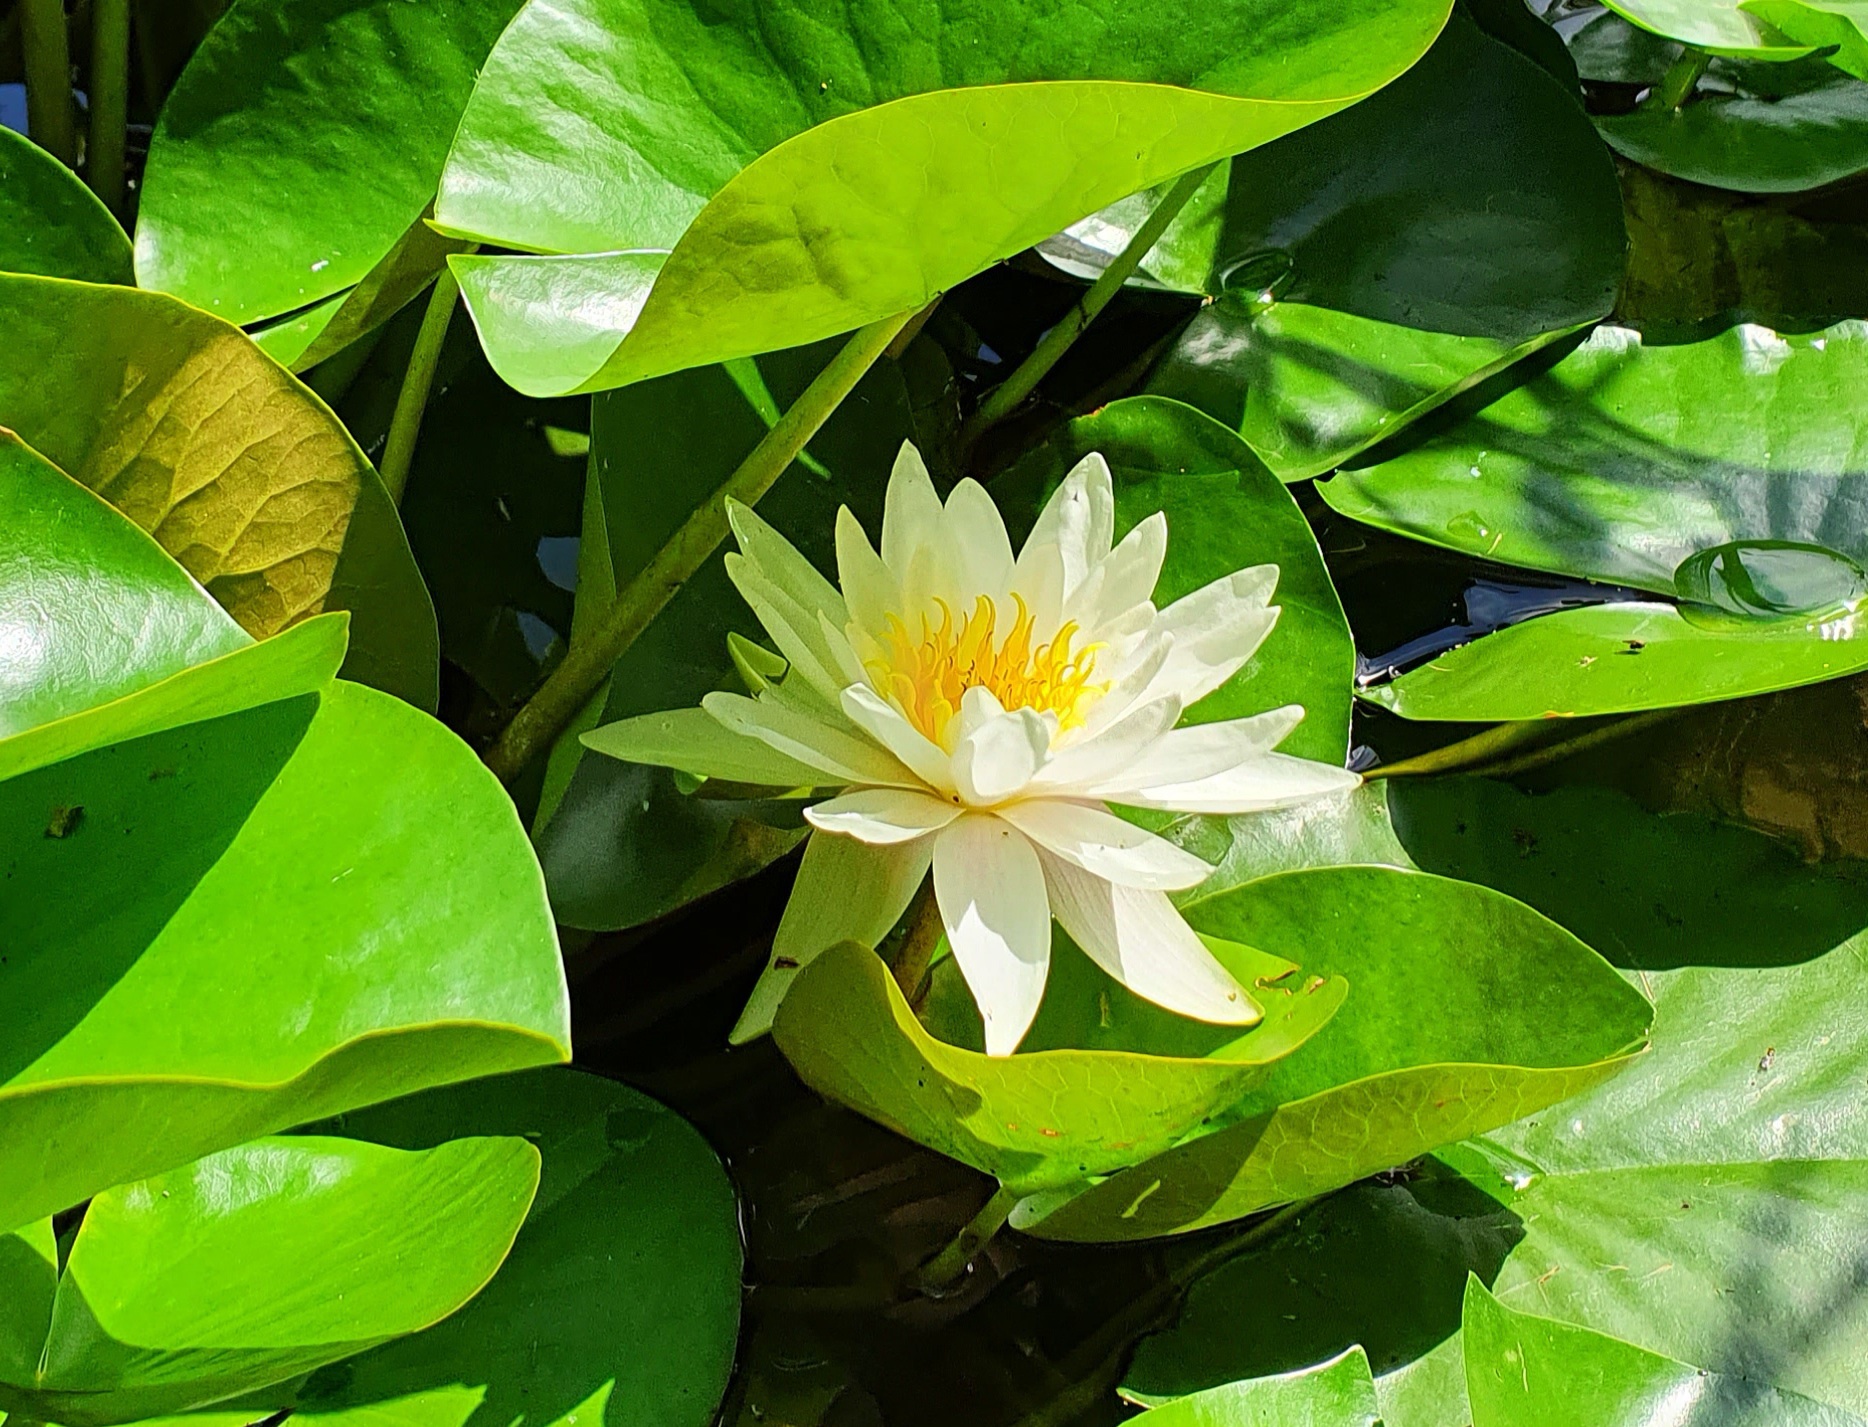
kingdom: Plantae
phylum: Tracheophyta
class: Magnoliopsida
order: Nymphaeales
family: Nymphaeaceae
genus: Nymphaea
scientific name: Nymphaea candida
